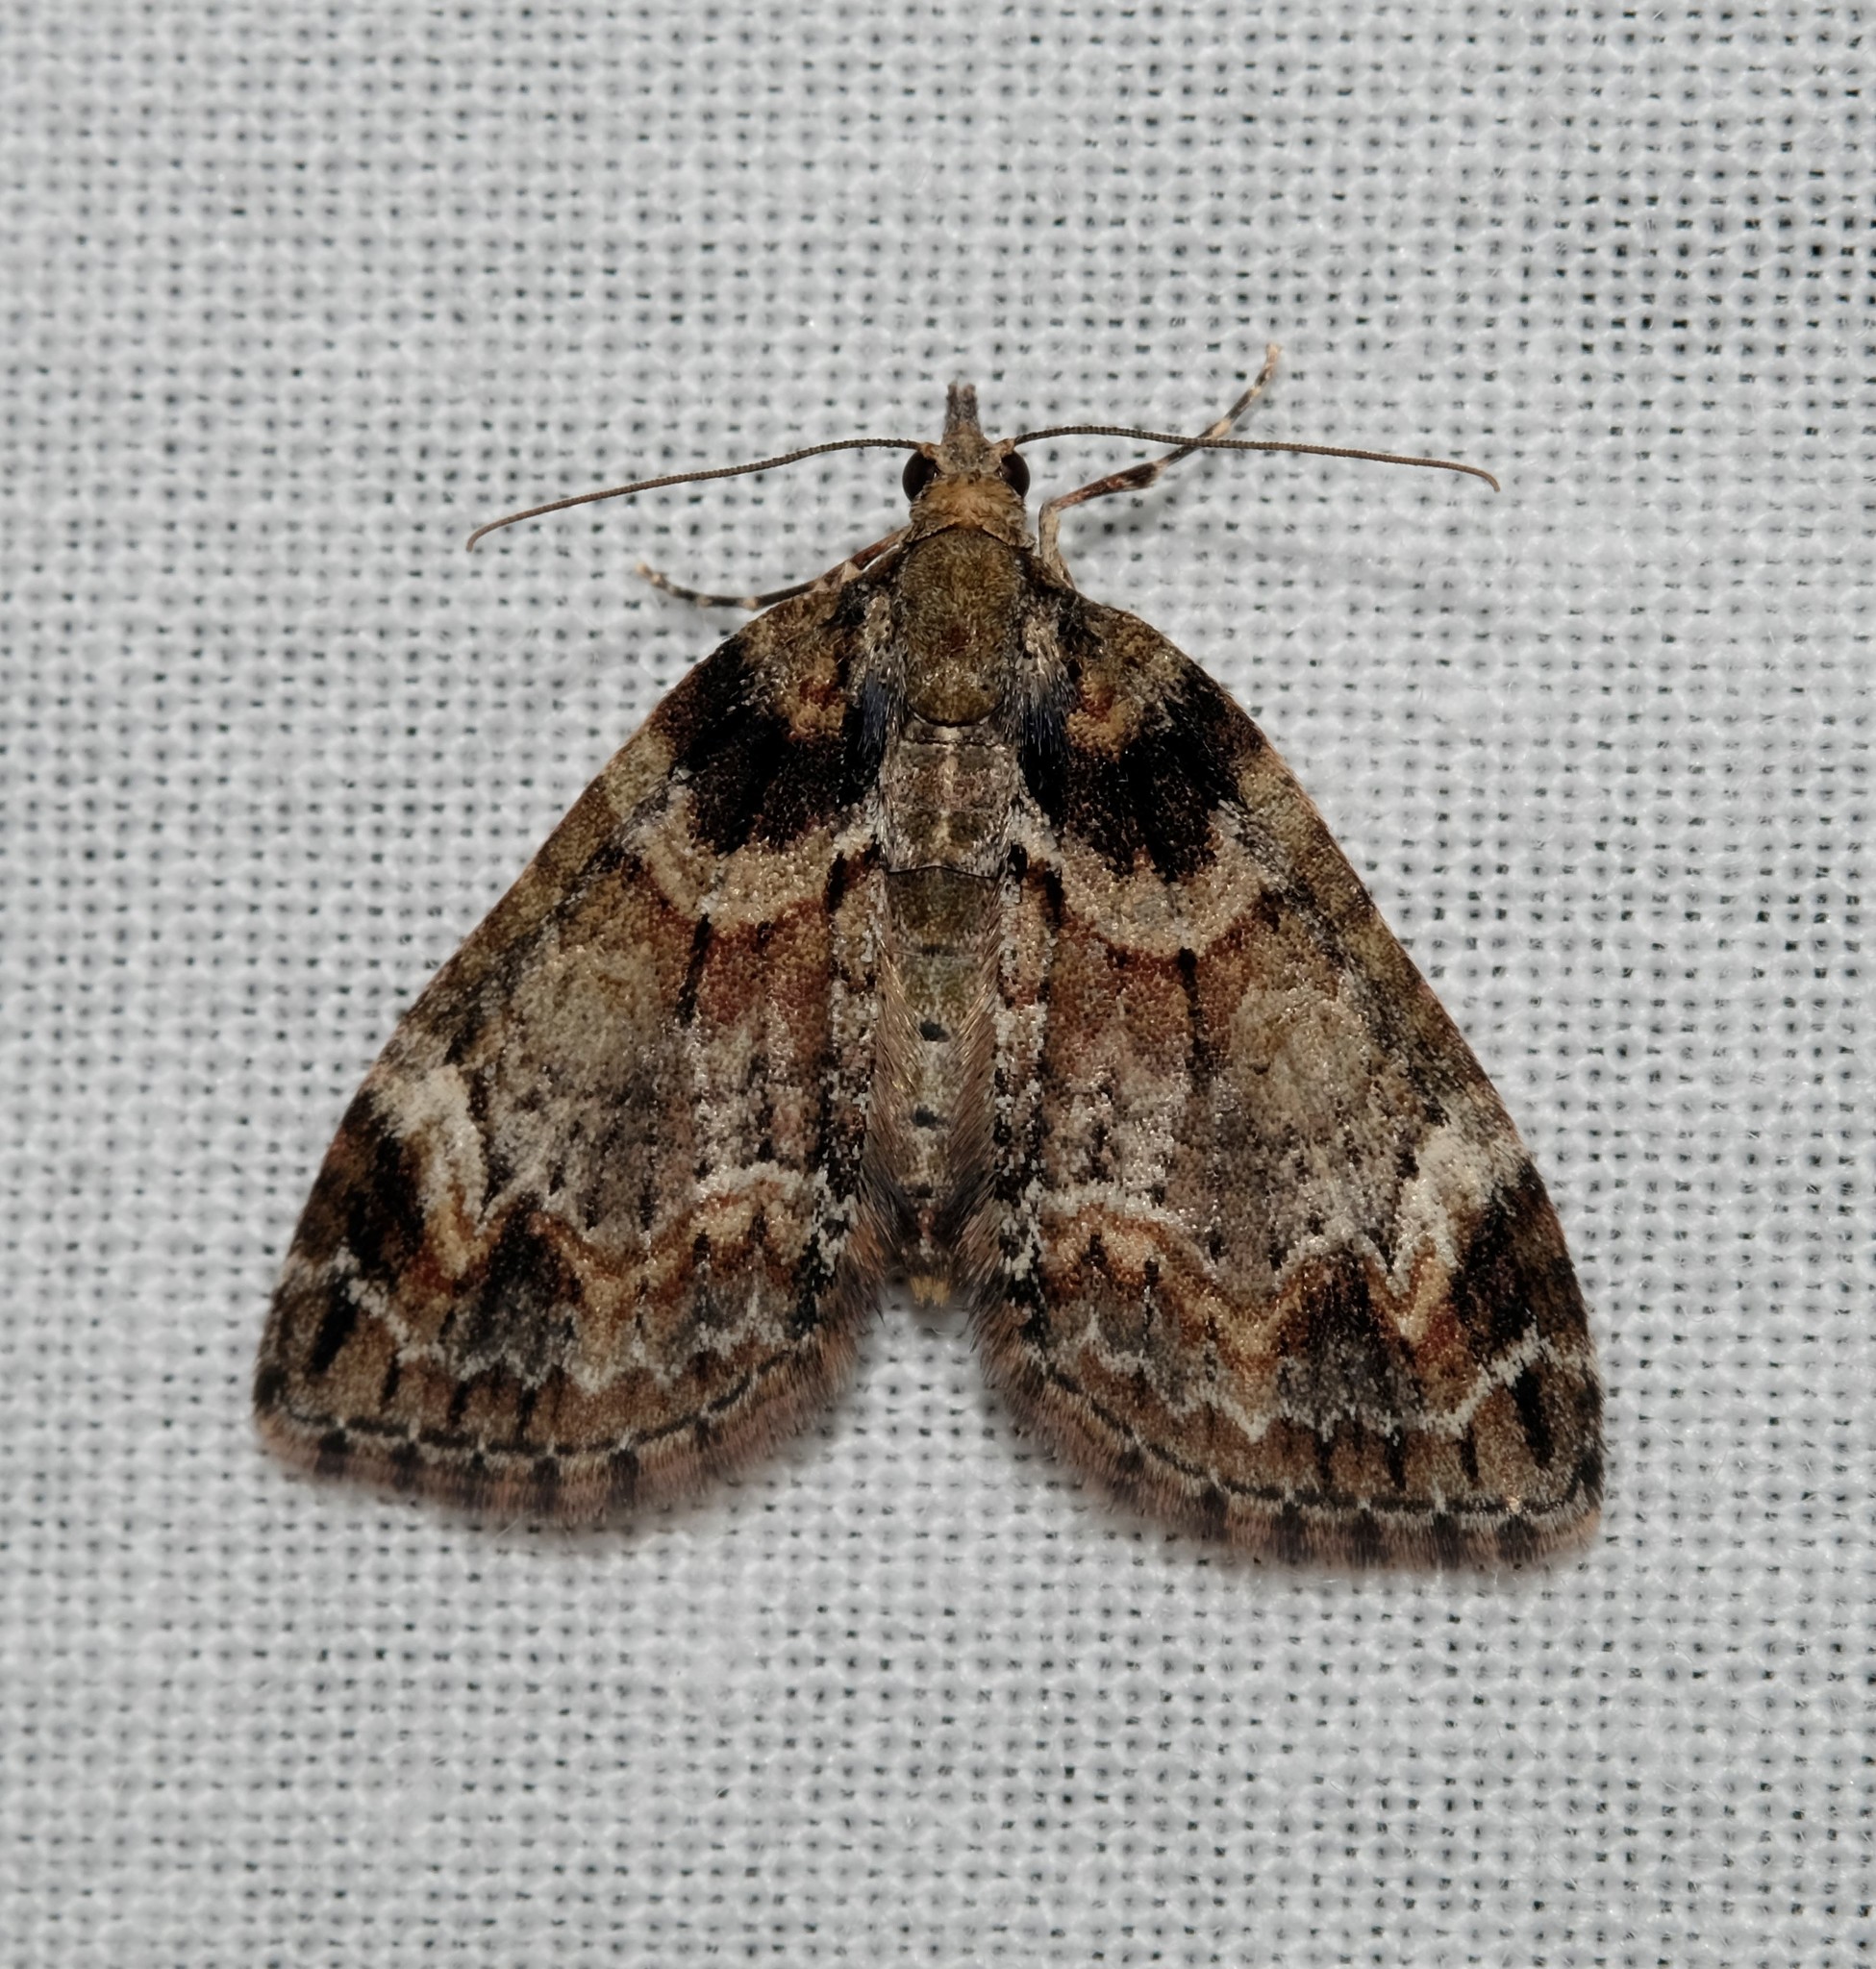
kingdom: Animalia
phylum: Arthropoda
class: Insecta
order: Lepidoptera
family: Geometridae
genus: Microdes
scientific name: Microdes diplodonta
